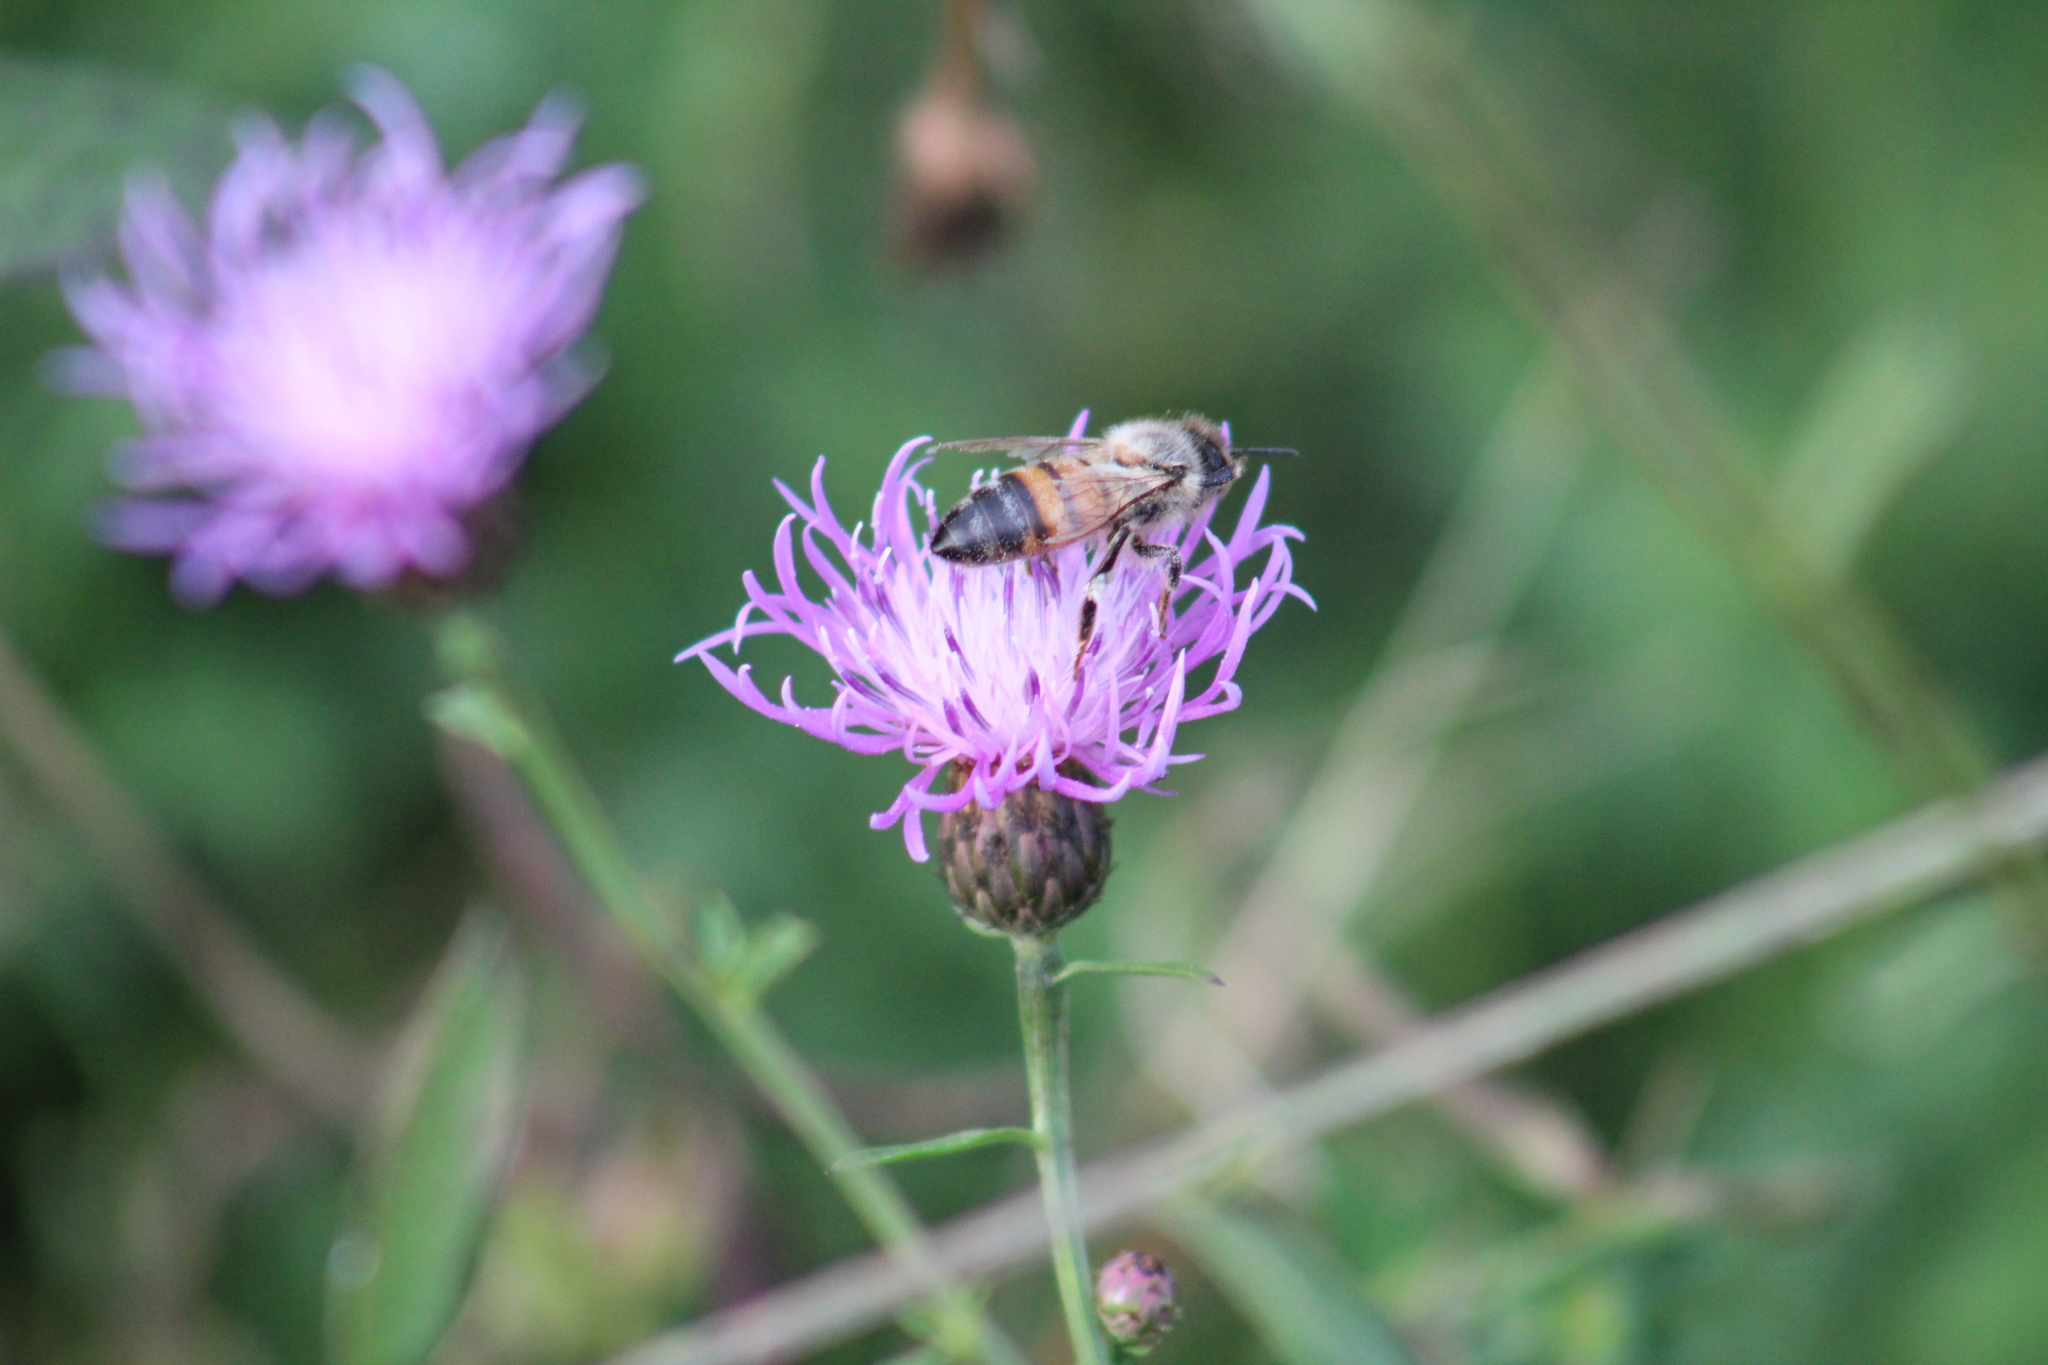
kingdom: Animalia
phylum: Arthropoda
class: Insecta
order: Hymenoptera
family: Apidae
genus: Apis
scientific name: Apis mellifera
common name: Honey bee
